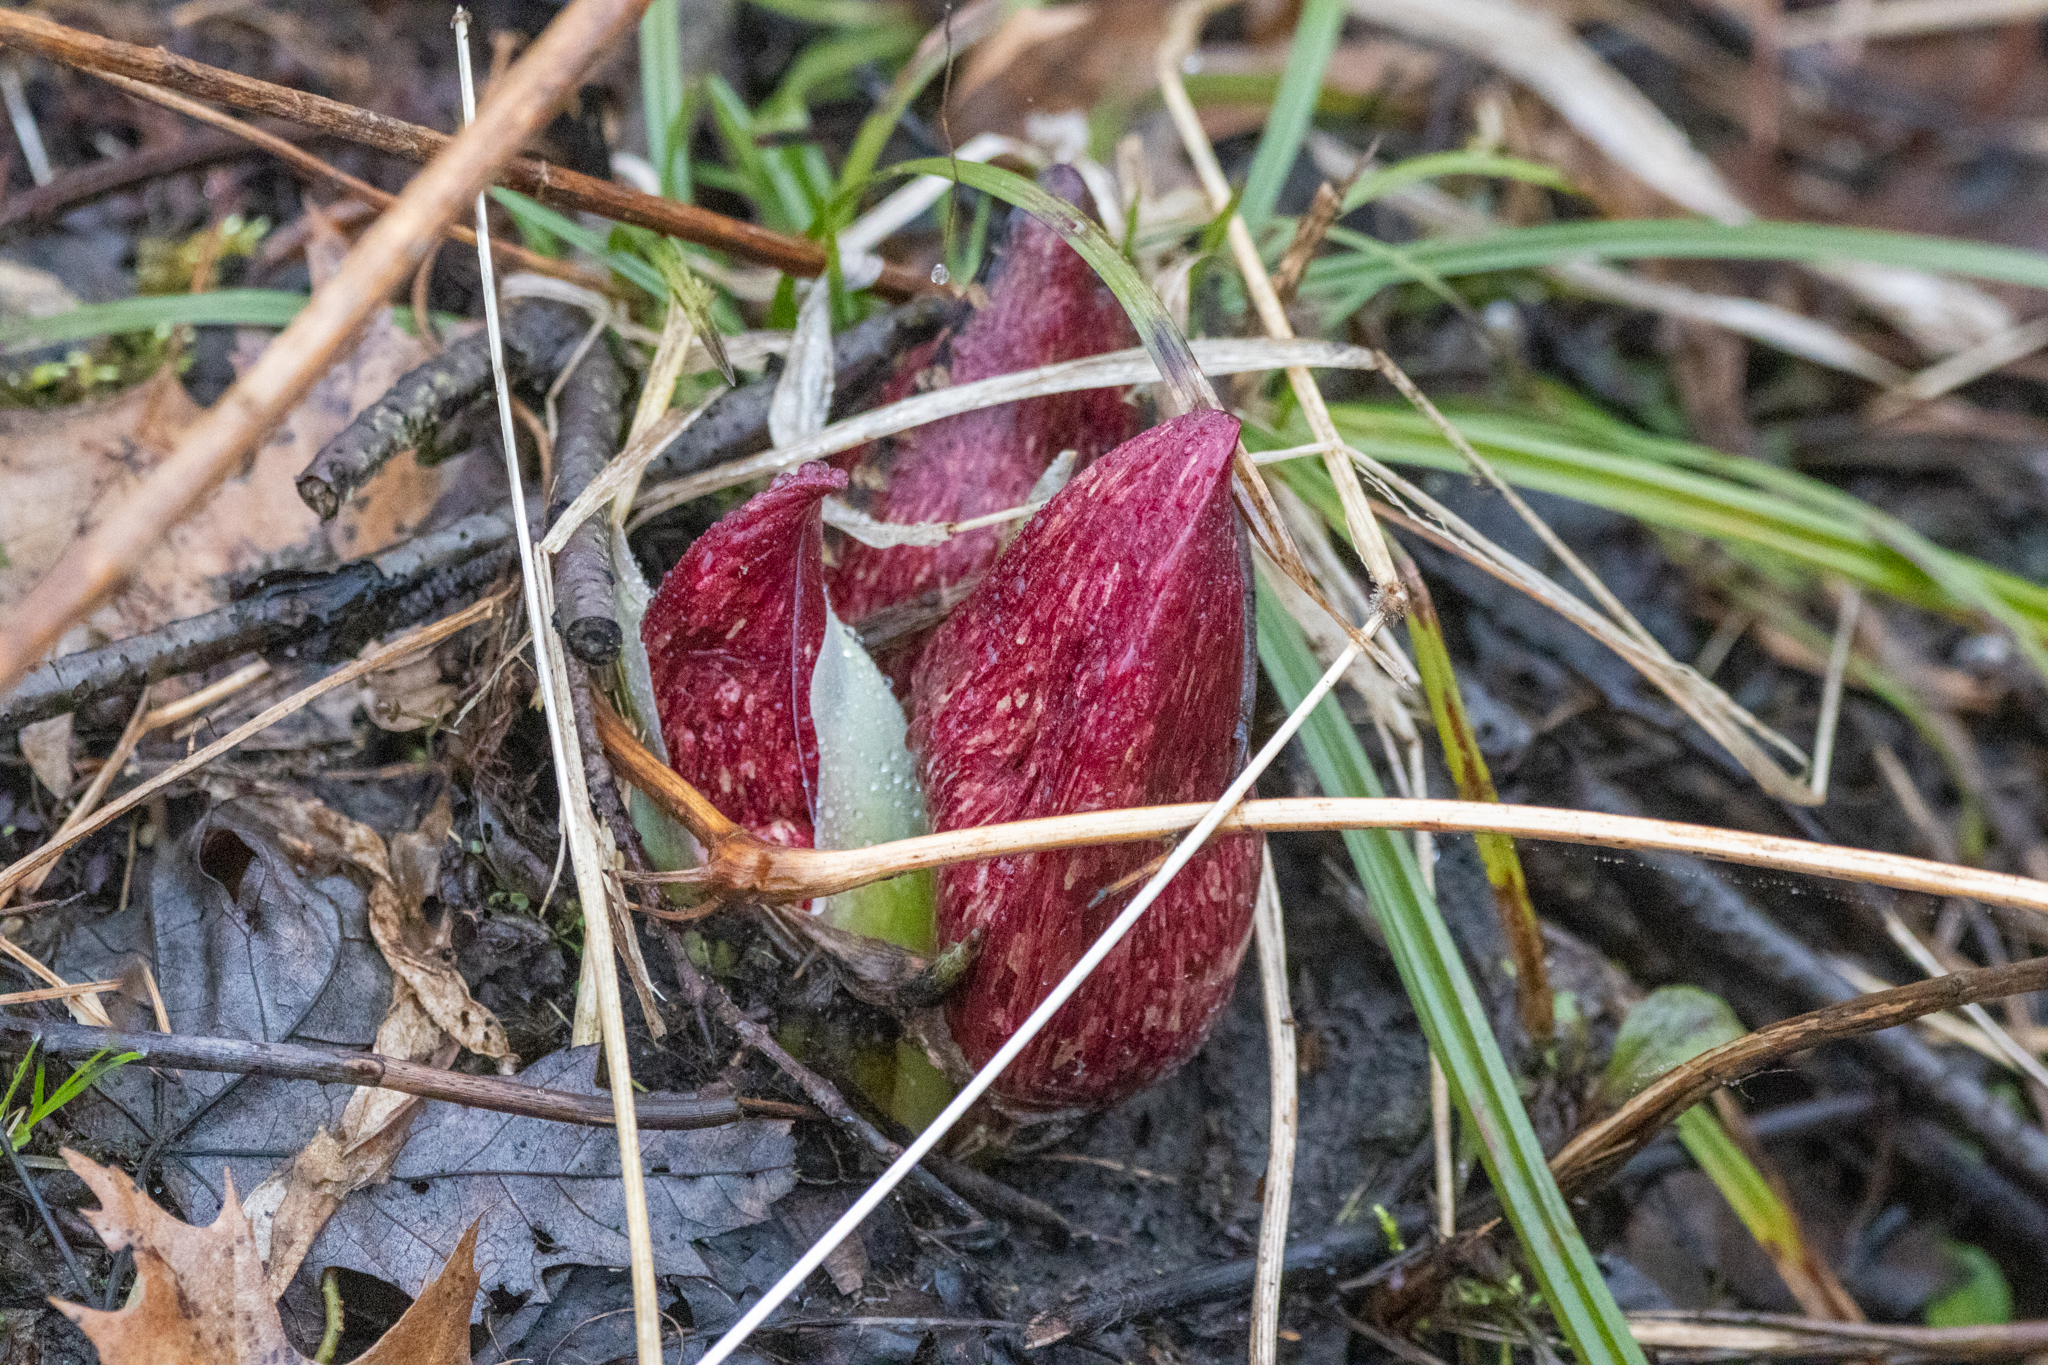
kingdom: Plantae
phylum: Tracheophyta
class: Liliopsida
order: Alismatales
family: Araceae
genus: Symplocarpus
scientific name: Symplocarpus foetidus
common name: Eastern skunk cabbage
